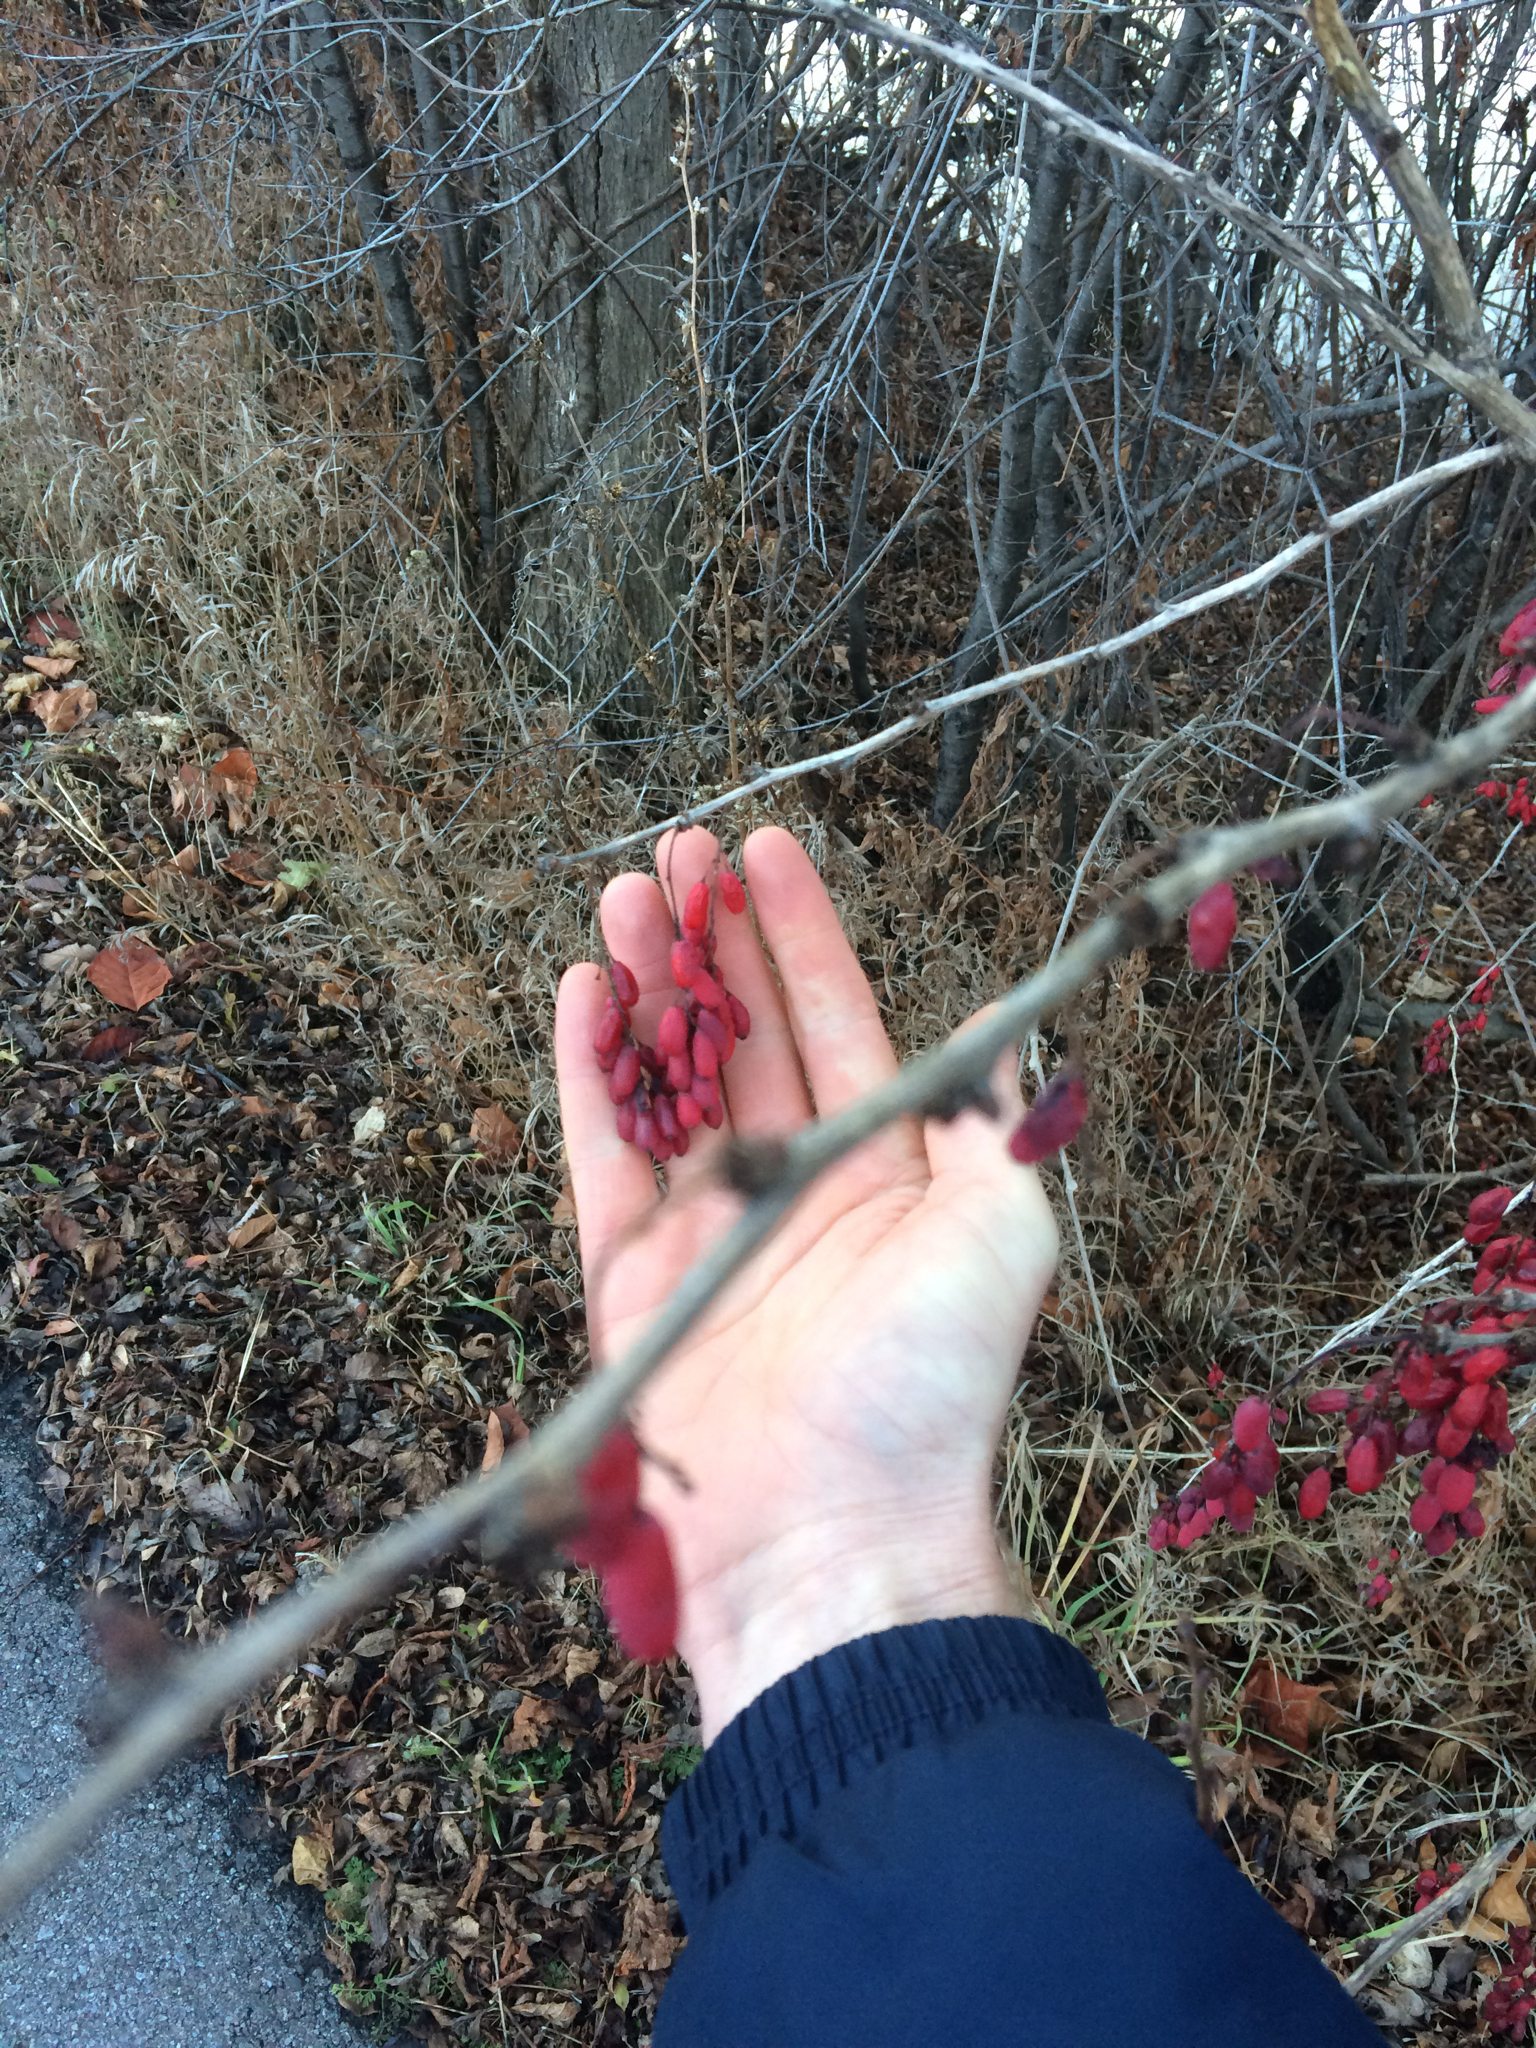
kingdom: Plantae
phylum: Tracheophyta
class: Magnoliopsida
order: Ranunculales
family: Berberidaceae
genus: Berberis
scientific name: Berberis vulgaris
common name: Barberry
